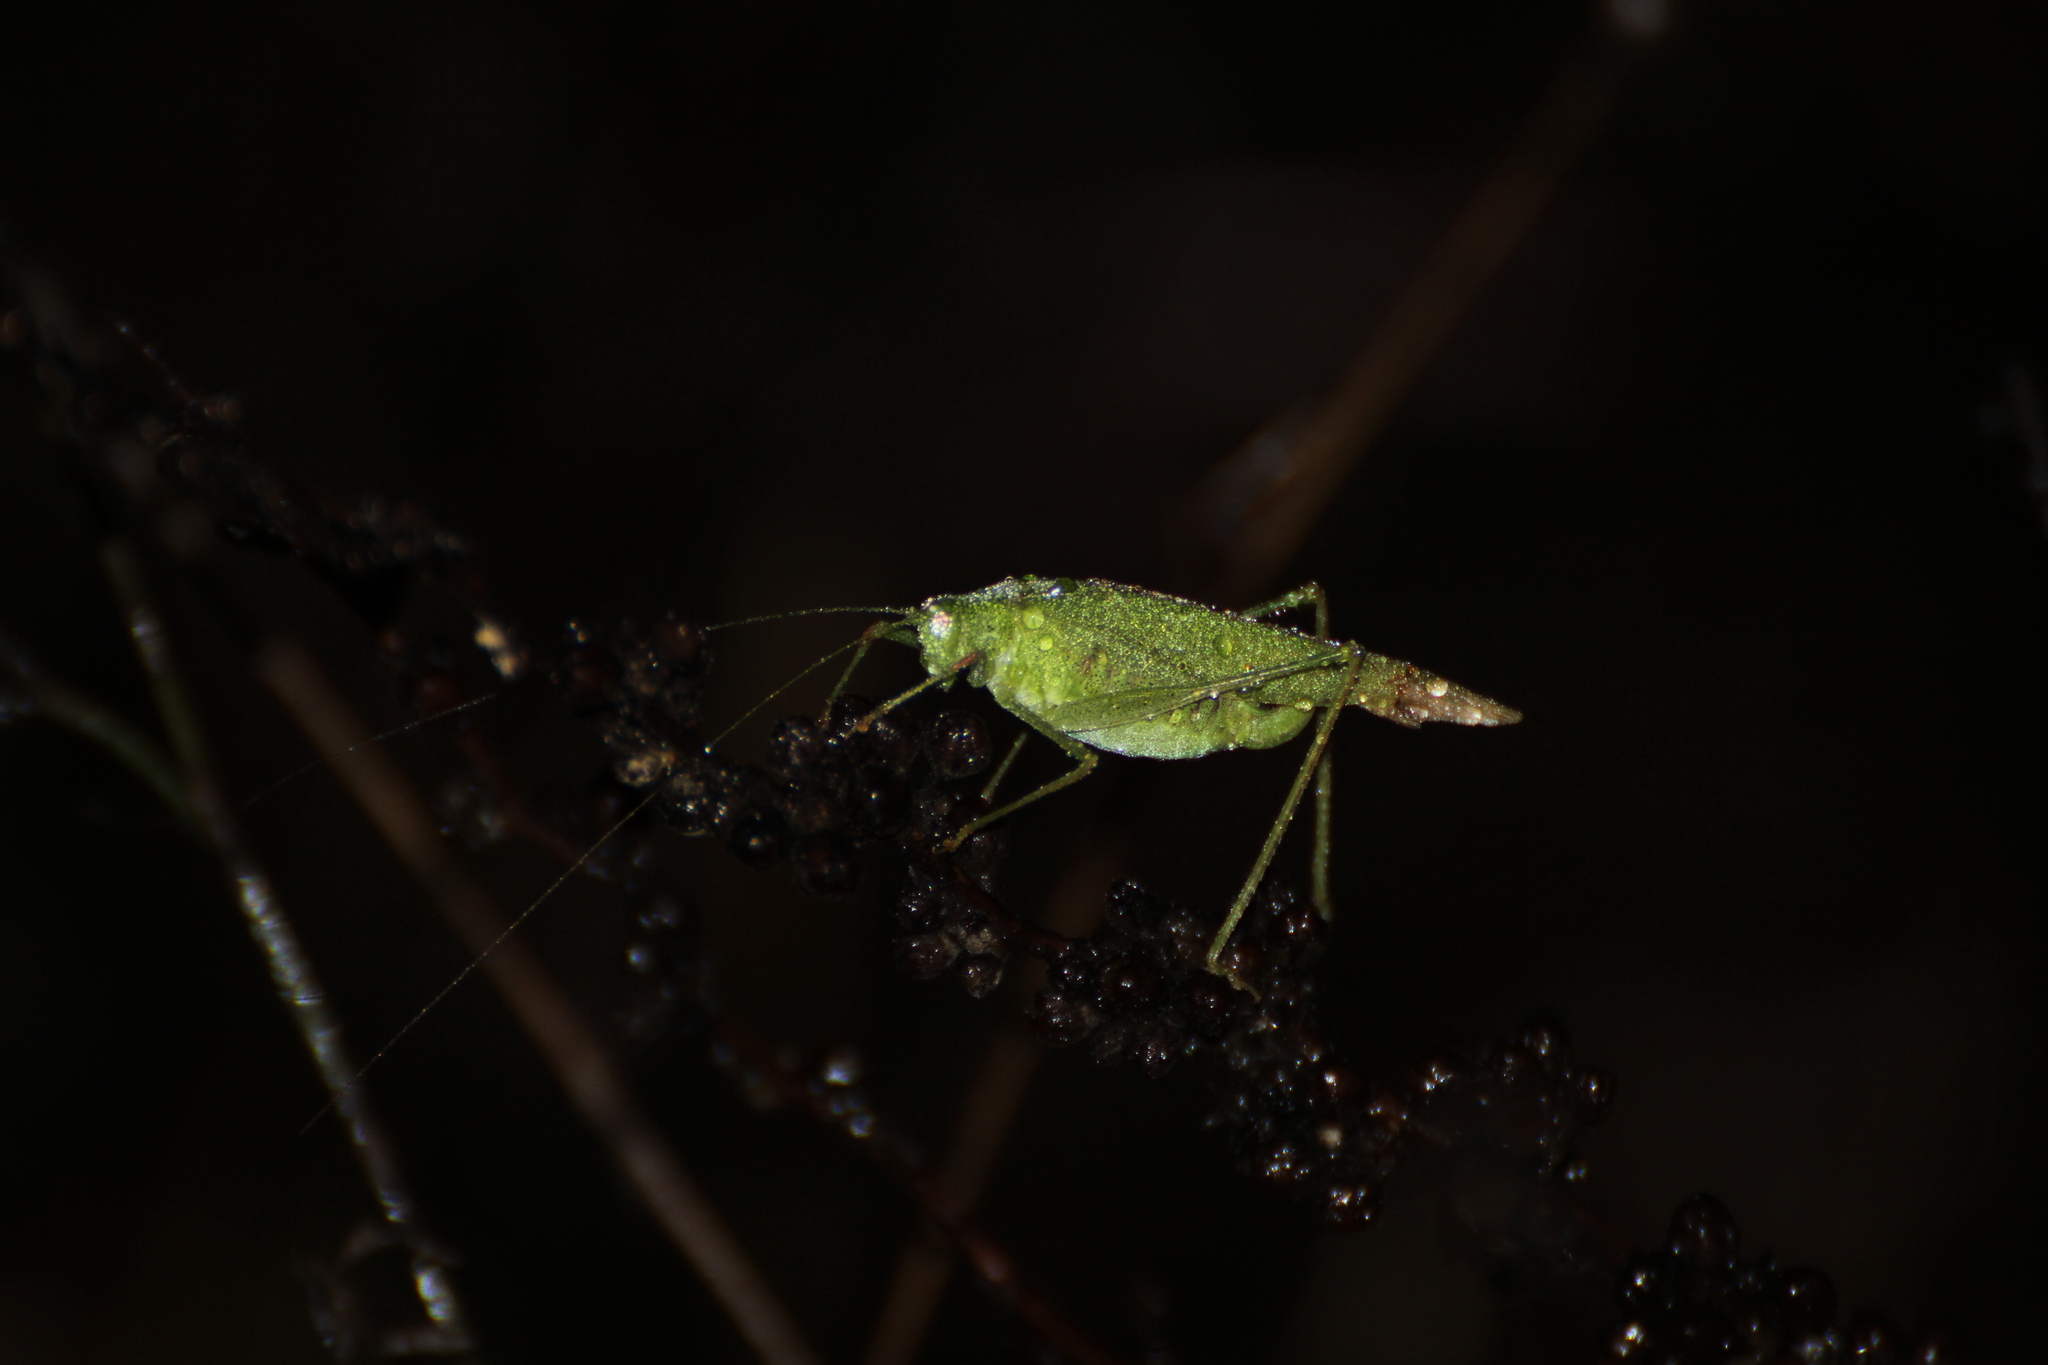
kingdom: Animalia
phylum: Arthropoda
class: Insecta
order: Orthoptera
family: Tettigoniidae
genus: Phaneroptera
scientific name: Phaneroptera nana
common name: Southern sickle bush-cricket
